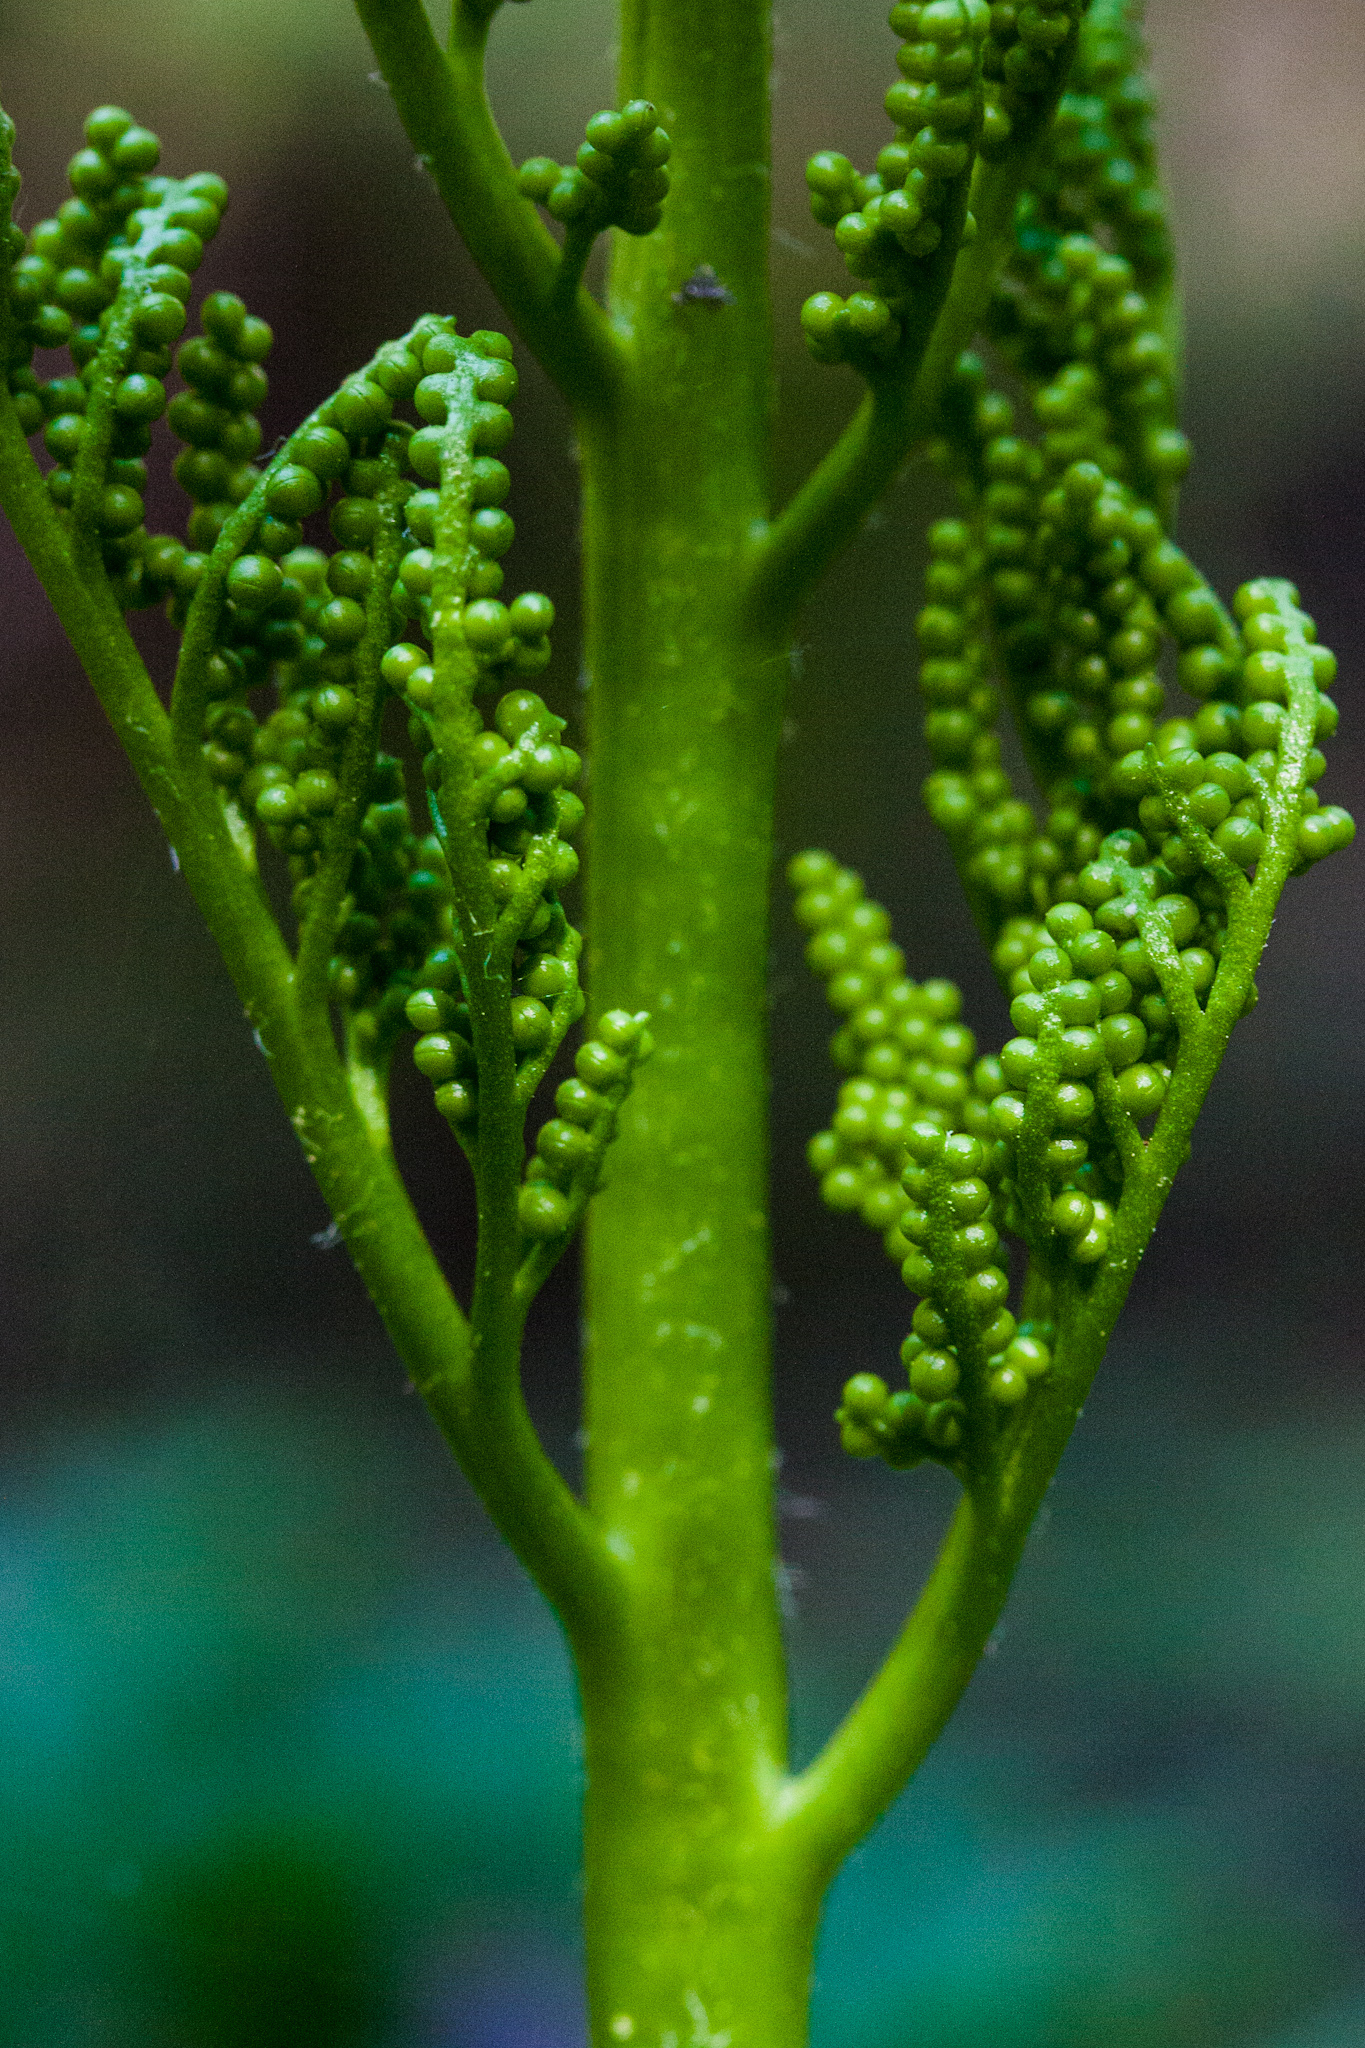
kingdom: Plantae
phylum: Tracheophyta
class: Polypodiopsida
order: Ophioglossales
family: Ophioglossaceae
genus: Sceptridium
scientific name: Sceptridium multifidum
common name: Leathery grape fern
